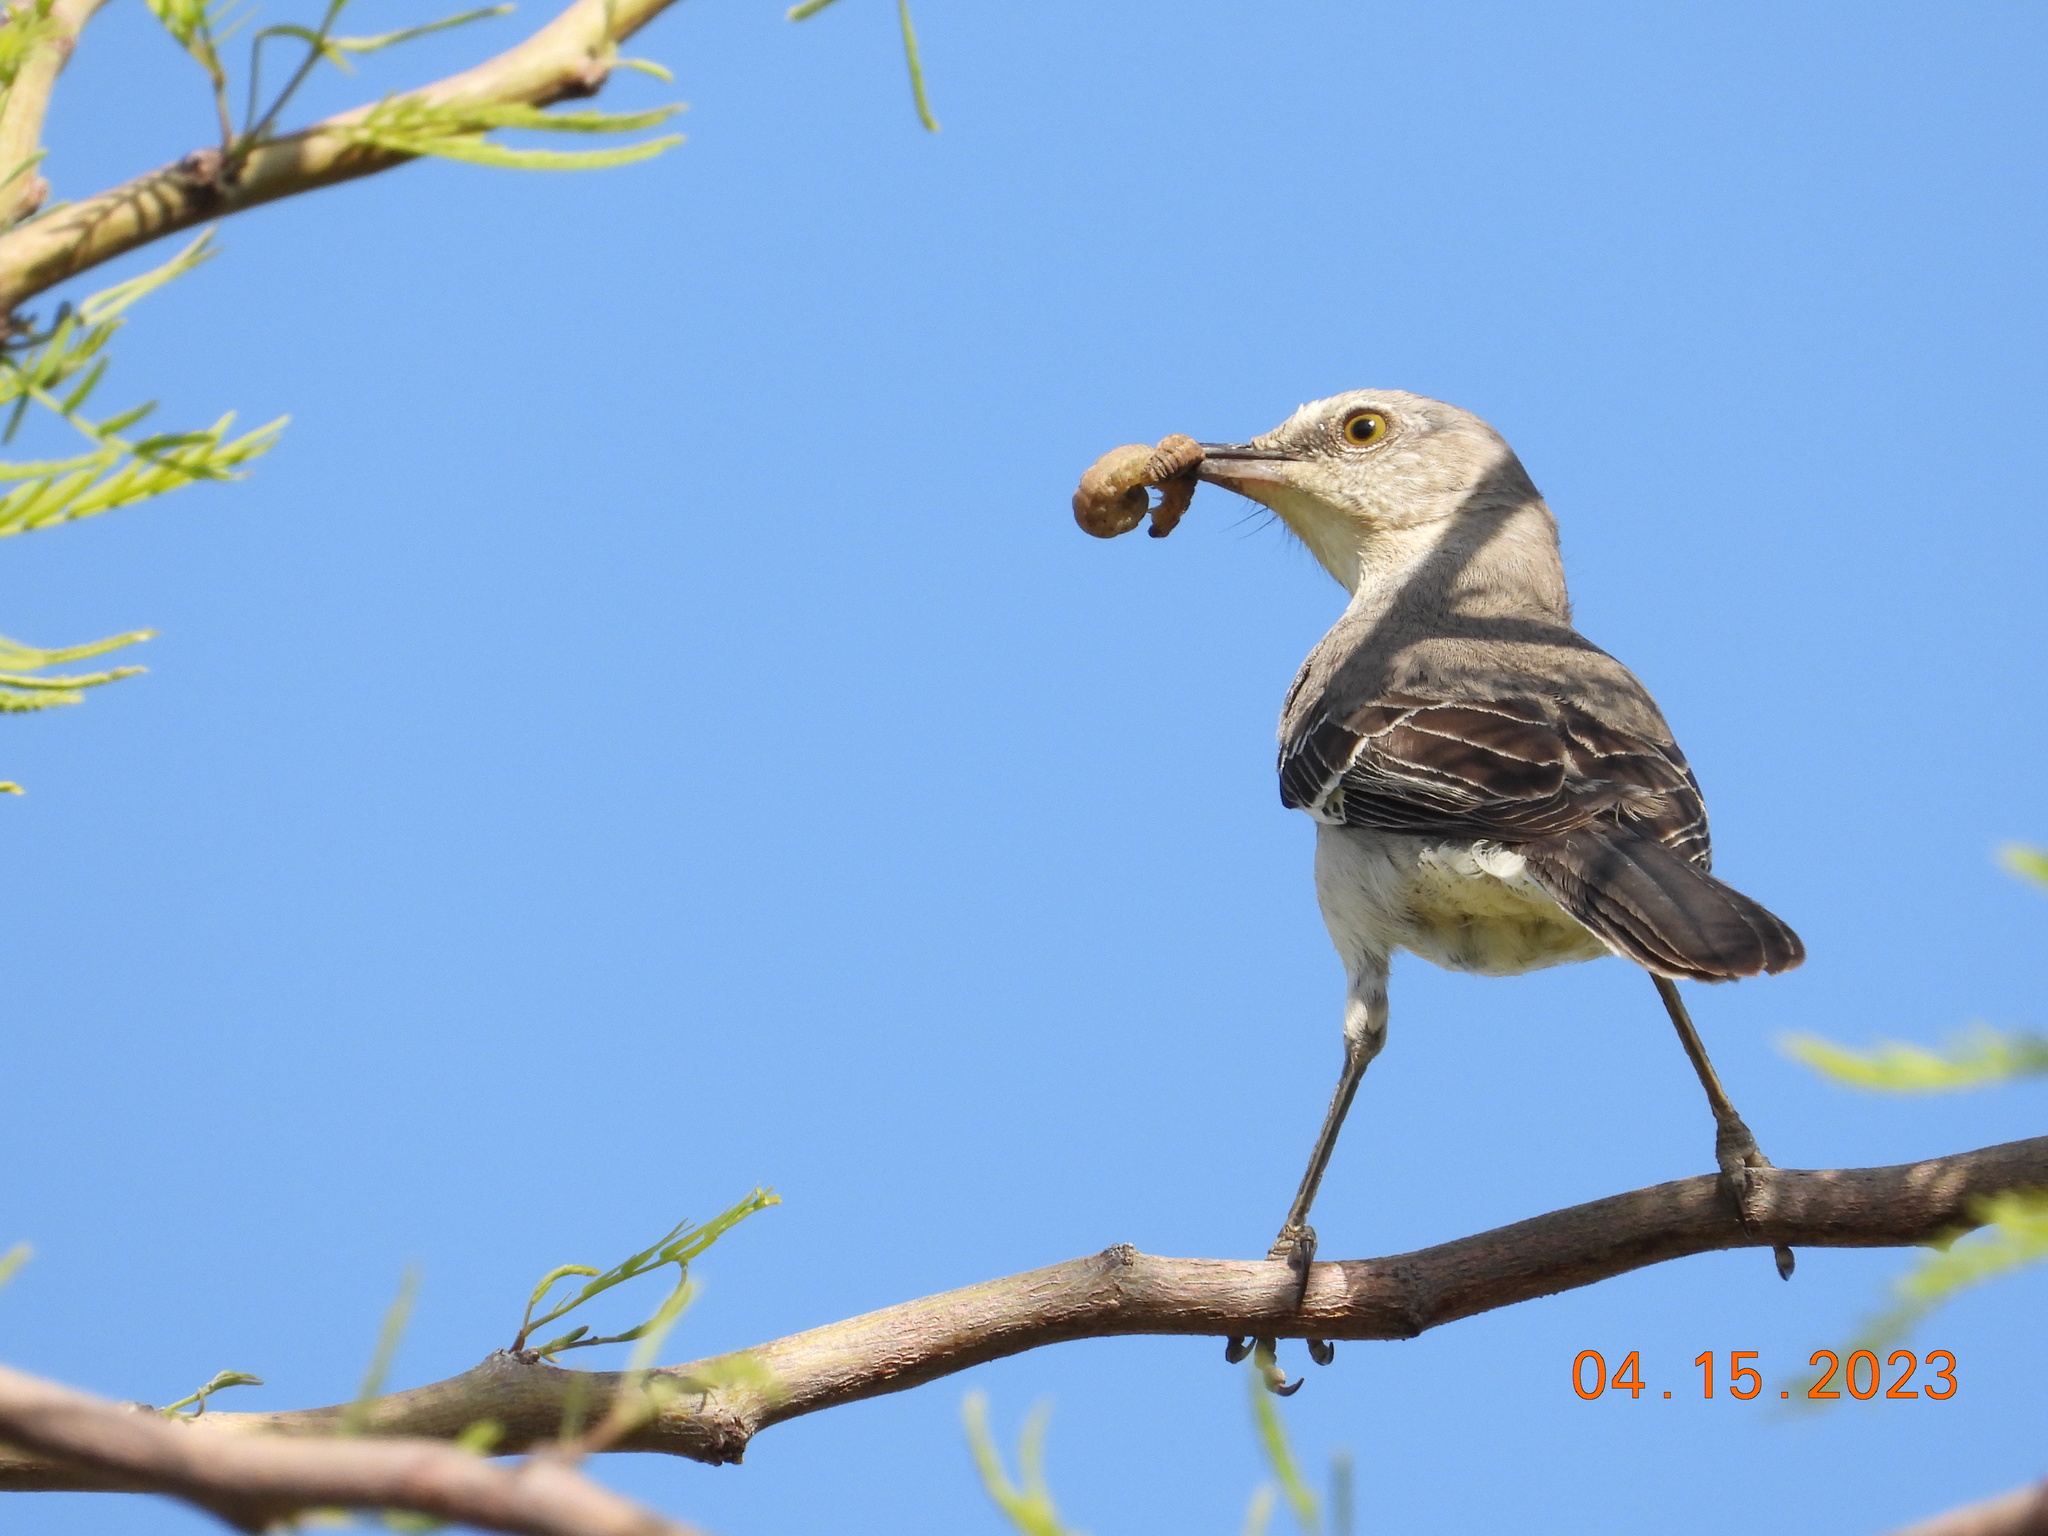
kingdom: Animalia
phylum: Chordata
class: Aves
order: Passeriformes
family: Mimidae
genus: Mimus
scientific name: Mimus polyglottos
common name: Northern mockingbird
